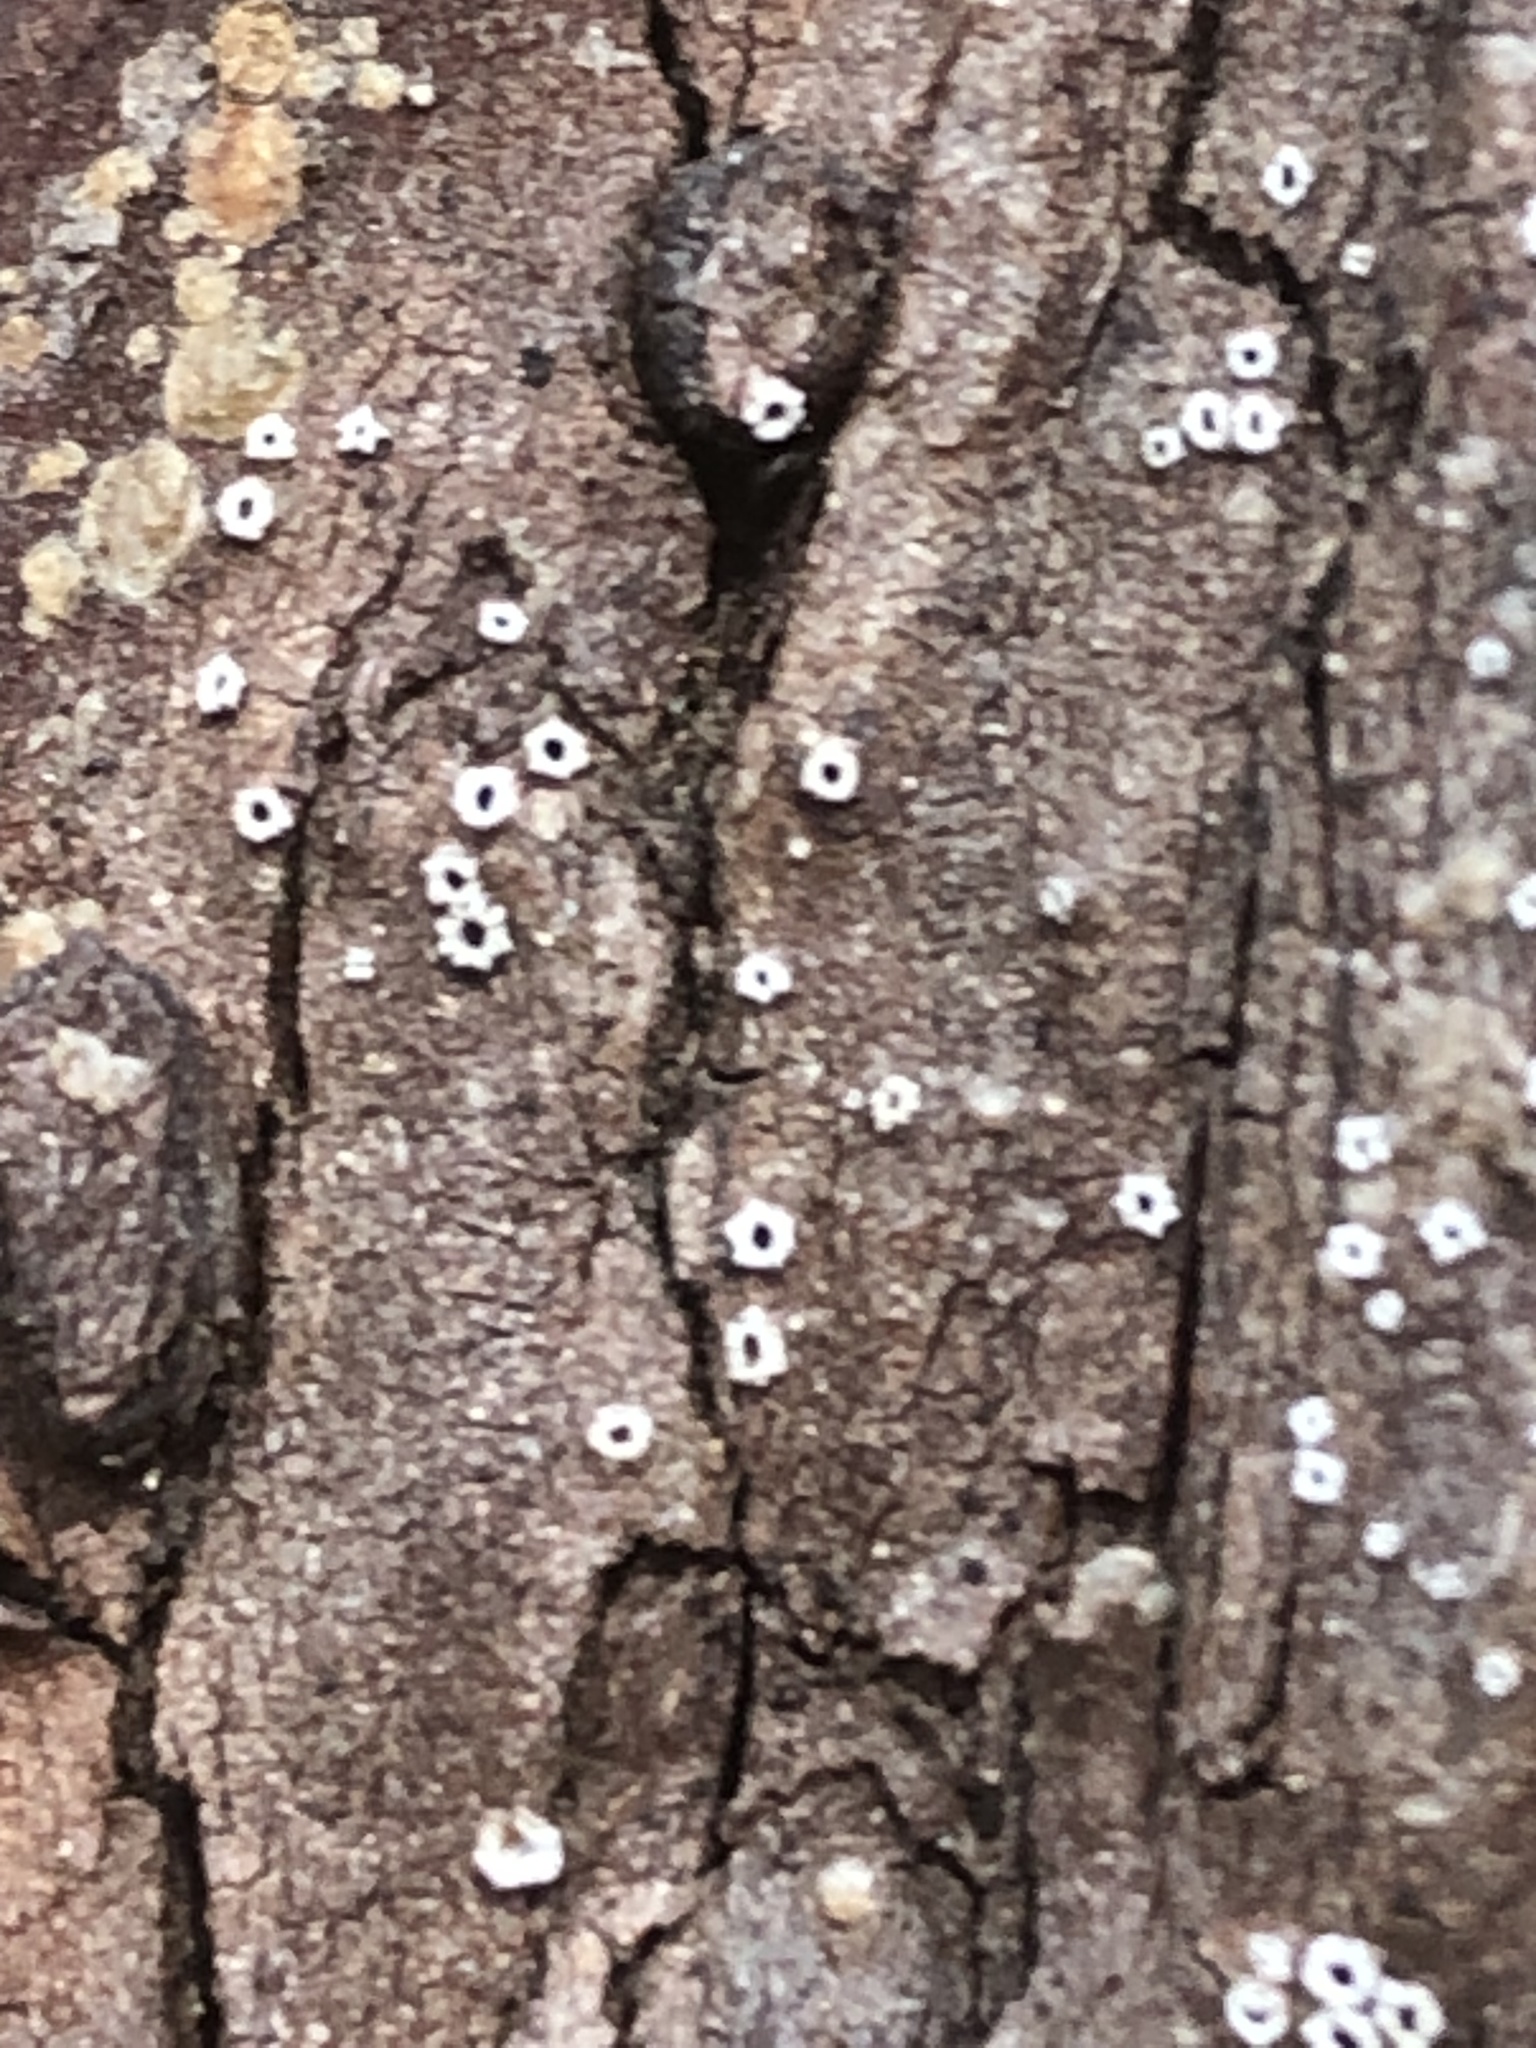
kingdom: Fungi
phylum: Ascomycota
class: Lecanoromycetes
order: Ostropales
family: Stictidaceae
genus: Stictis
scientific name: Stictis radiata
